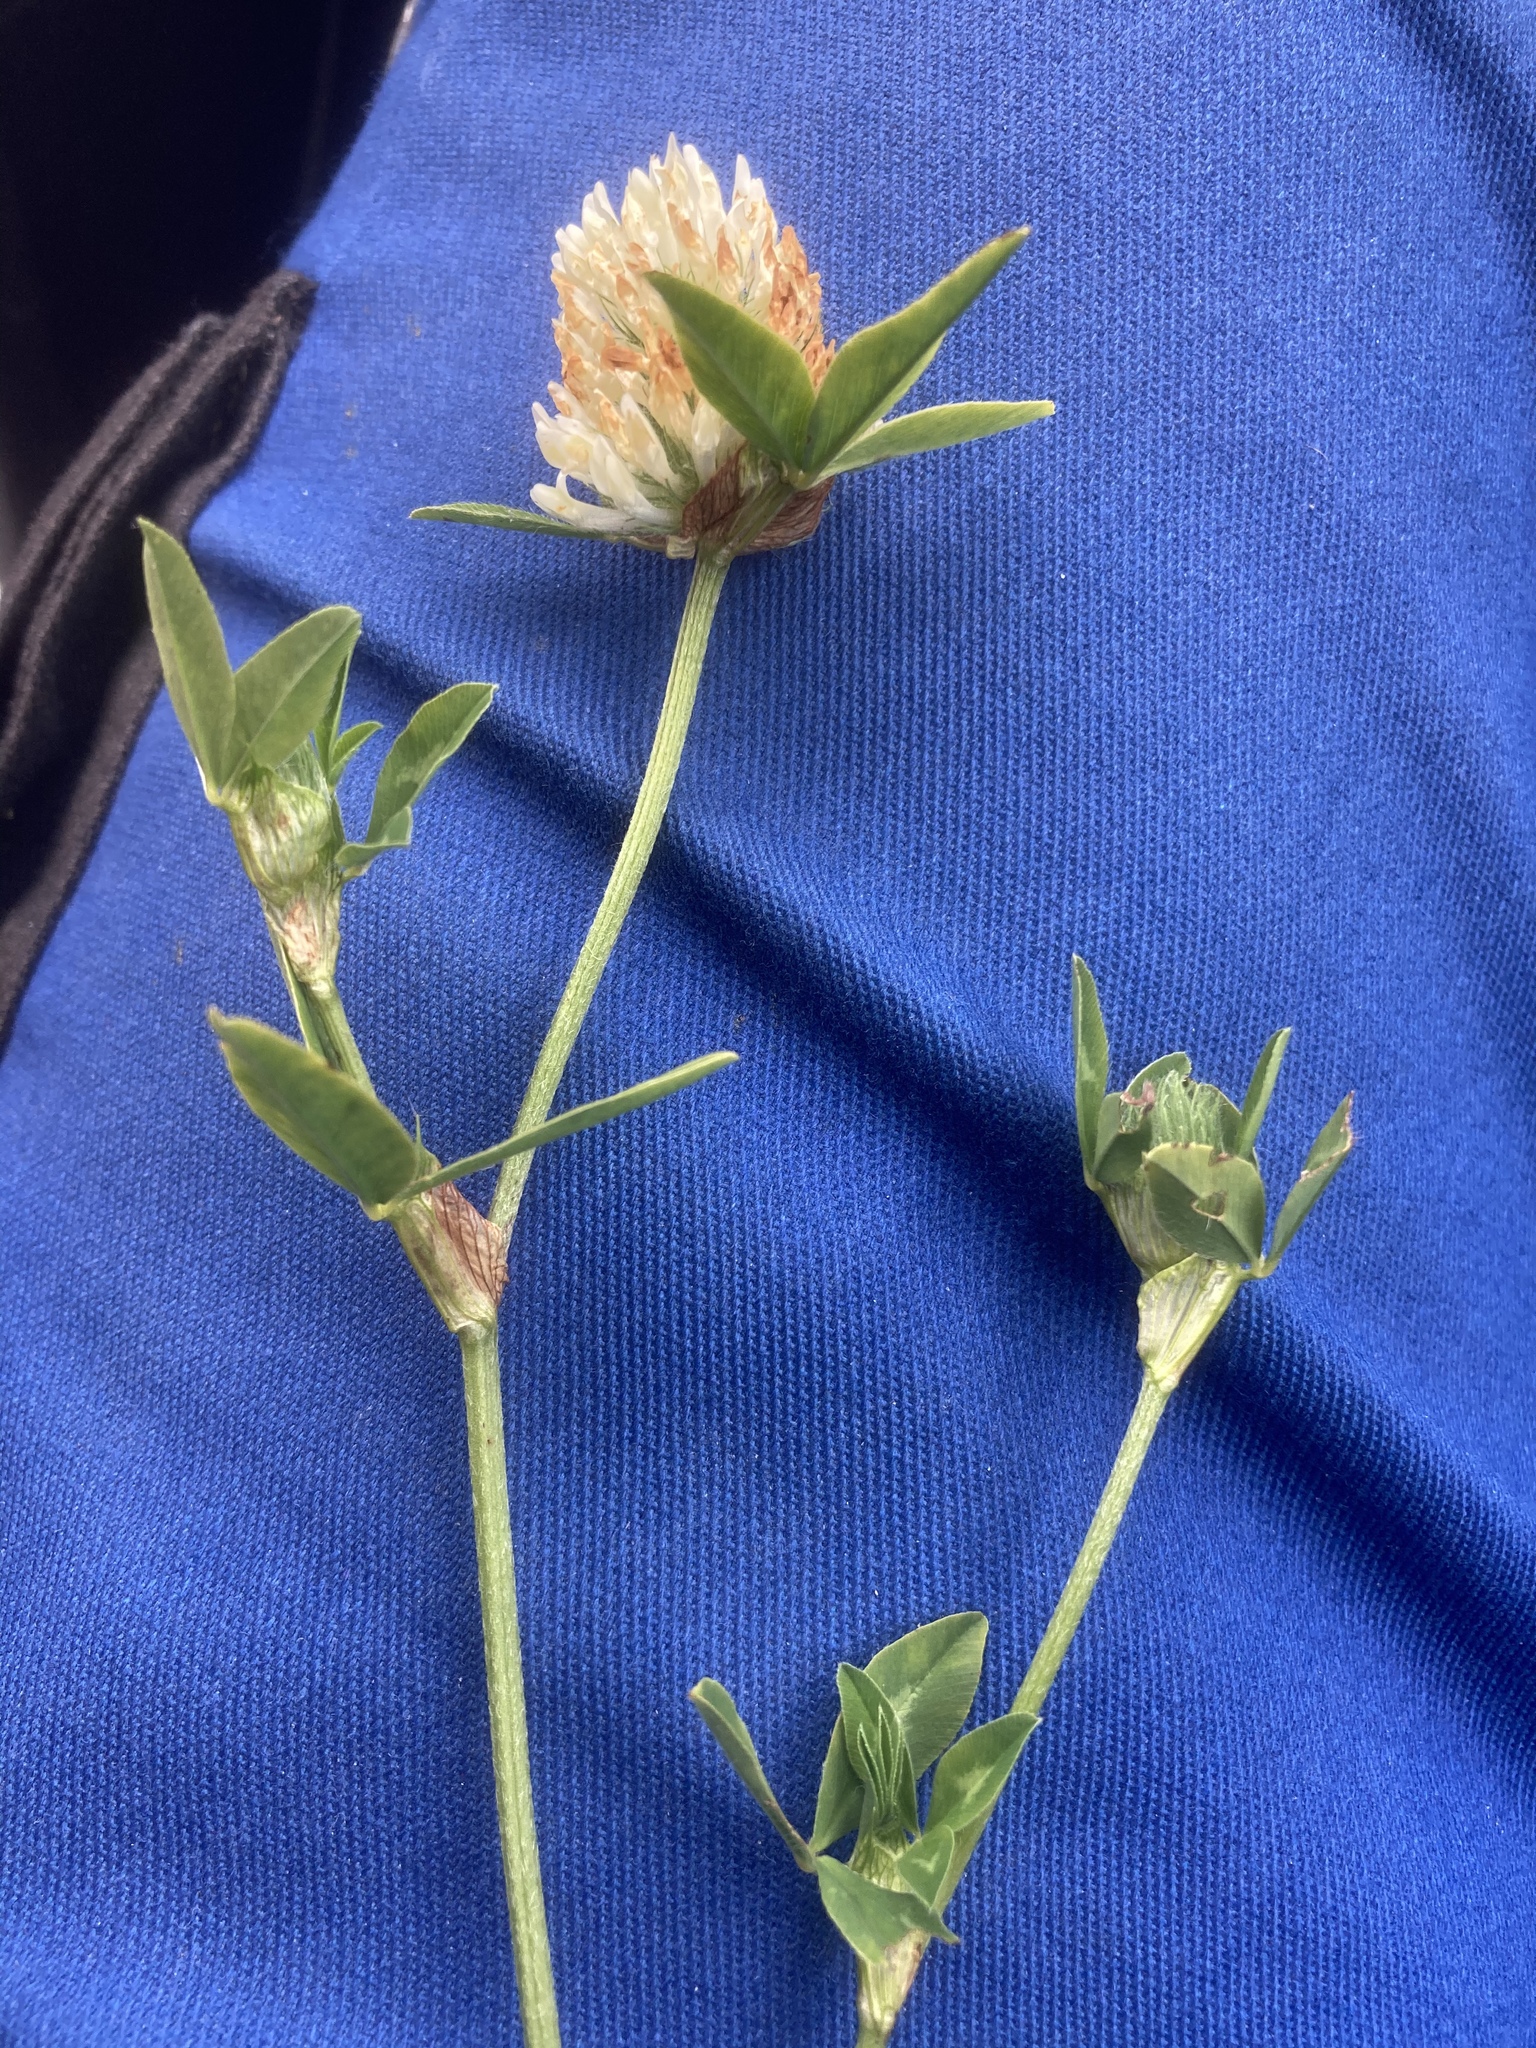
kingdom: Plantae
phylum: Tracheophyta
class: Magnoliopsida
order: Fabales
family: Fabaceae
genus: Trifolium
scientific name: Trifolium pratense
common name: Red clover
